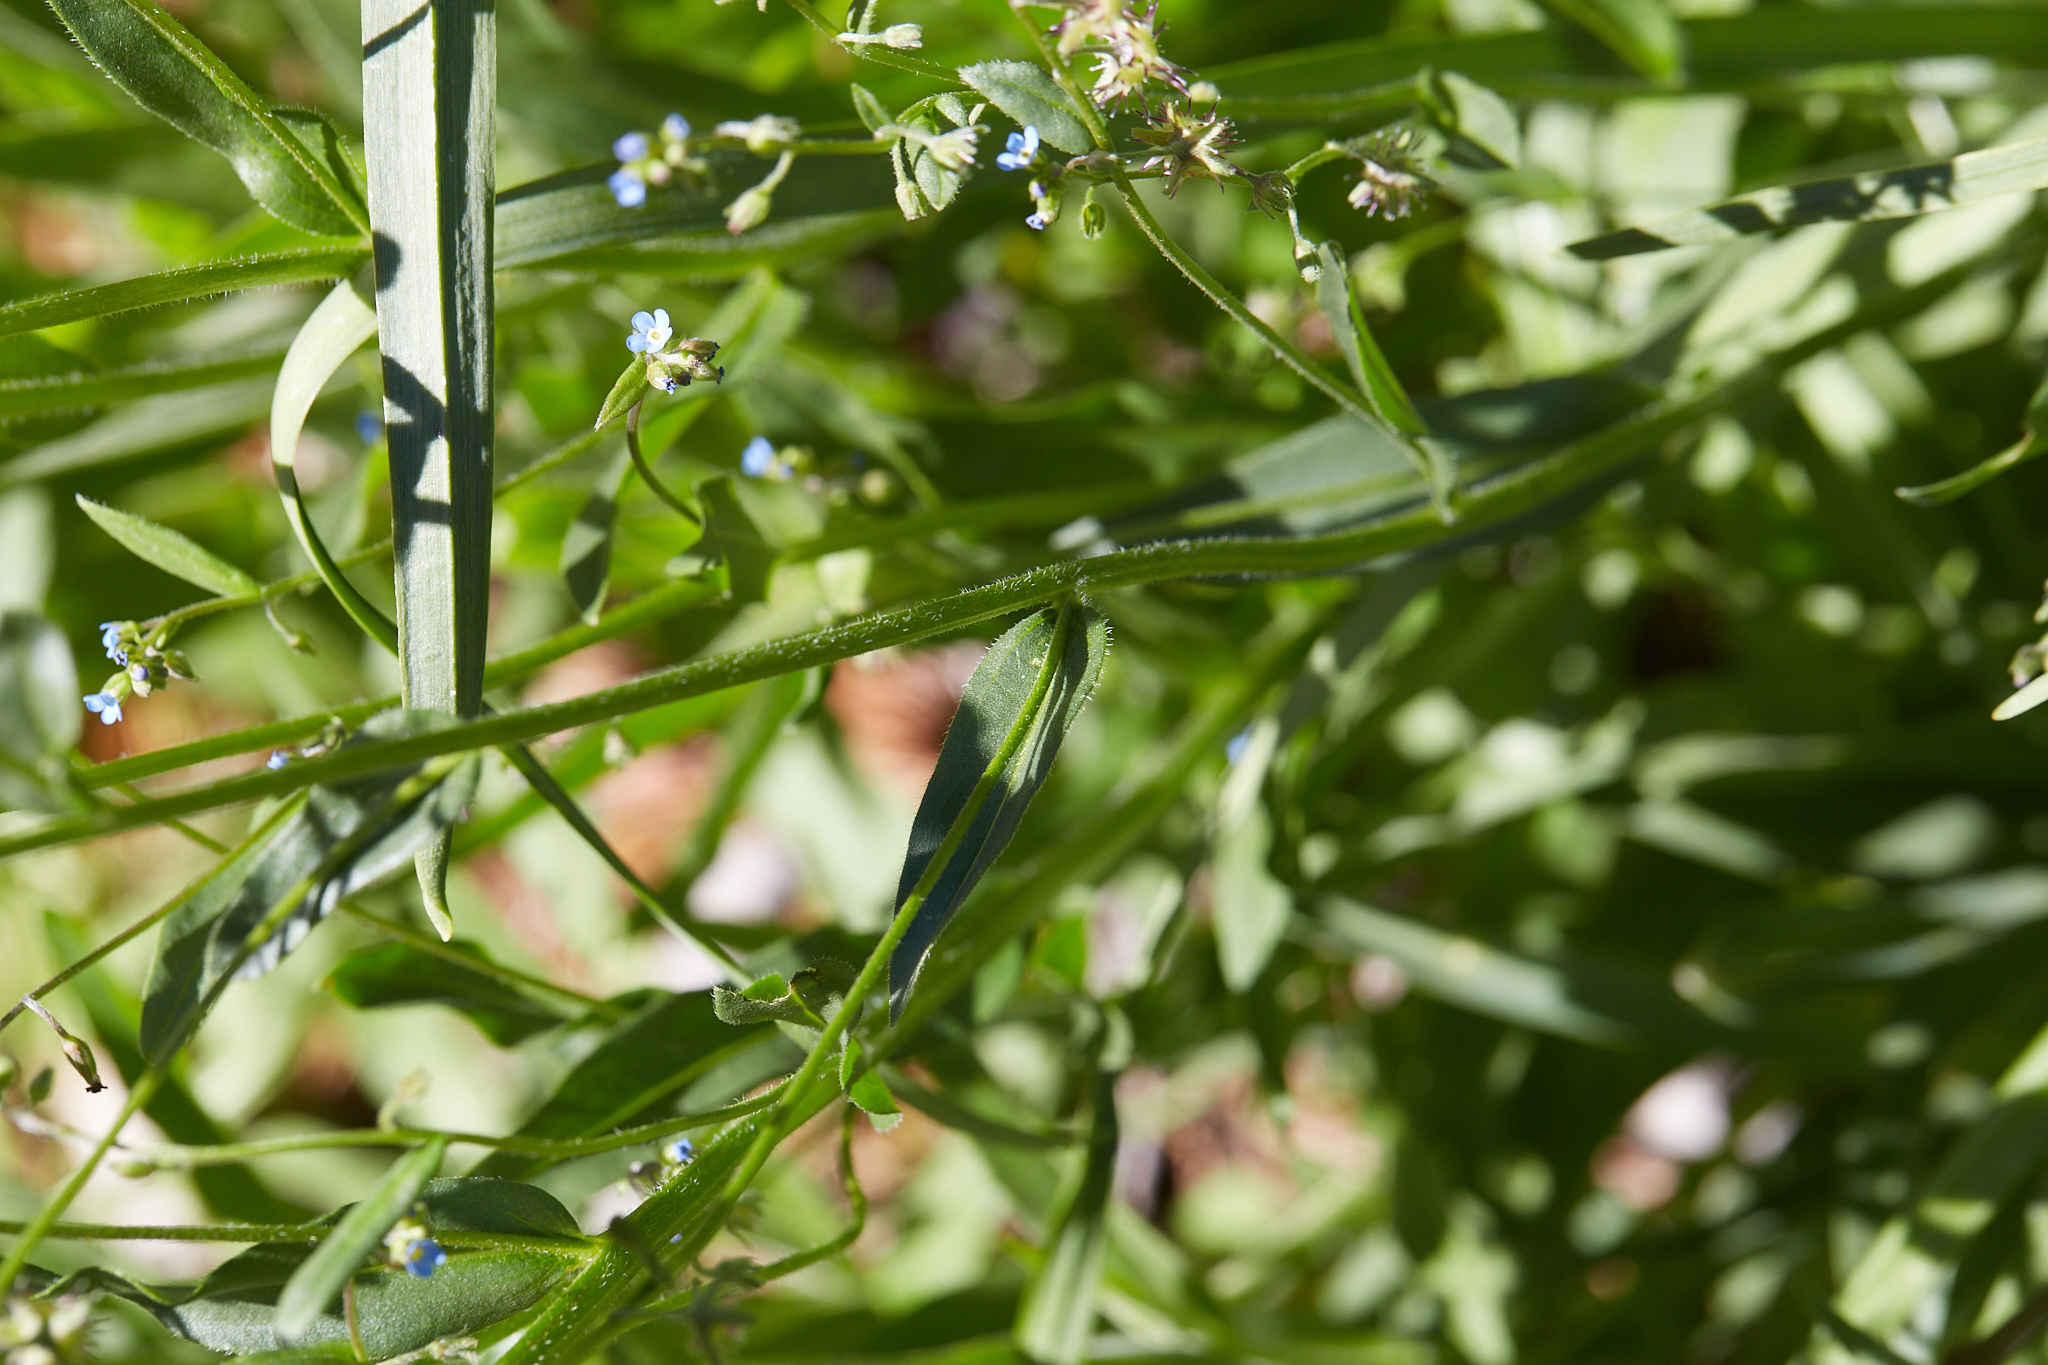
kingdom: Plantae
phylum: Tracheophyta
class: Magnoliopsida
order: Boraginales
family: Boraginaceae
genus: Hackelia
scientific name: Hackelia micrantha
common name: Meadow stickseed
